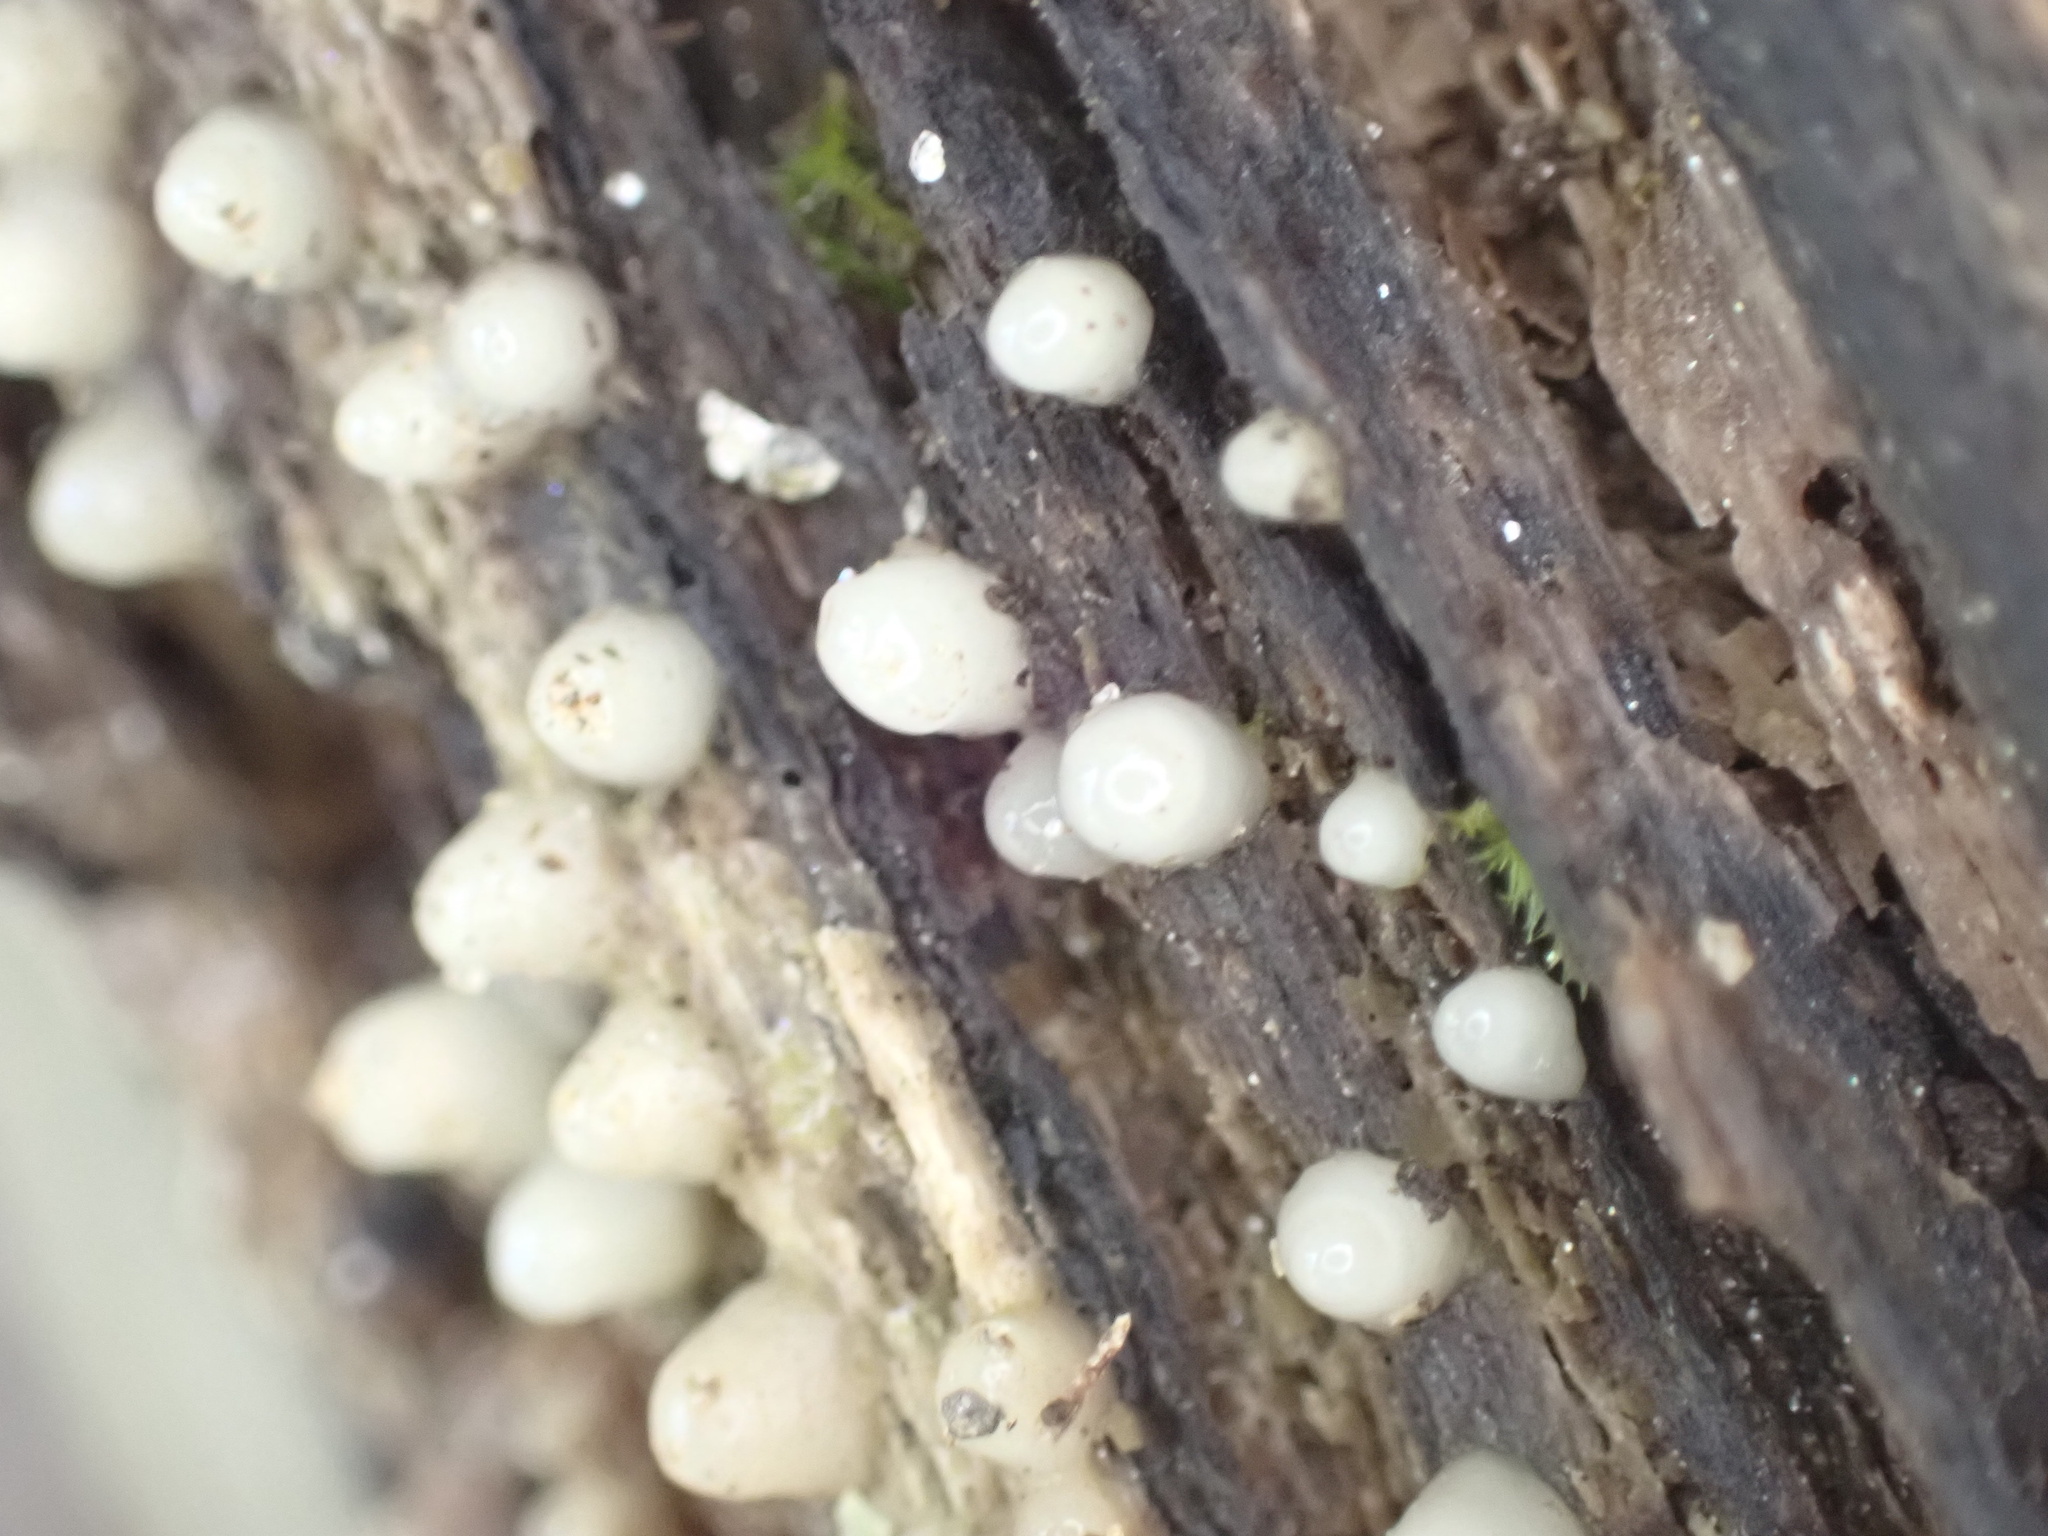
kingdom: Fungi
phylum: Basidiomycota
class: Atractiellomycetes
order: Atractiellales
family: Phleogenaceae
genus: Helicogloea
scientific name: Helicogloea compressa
